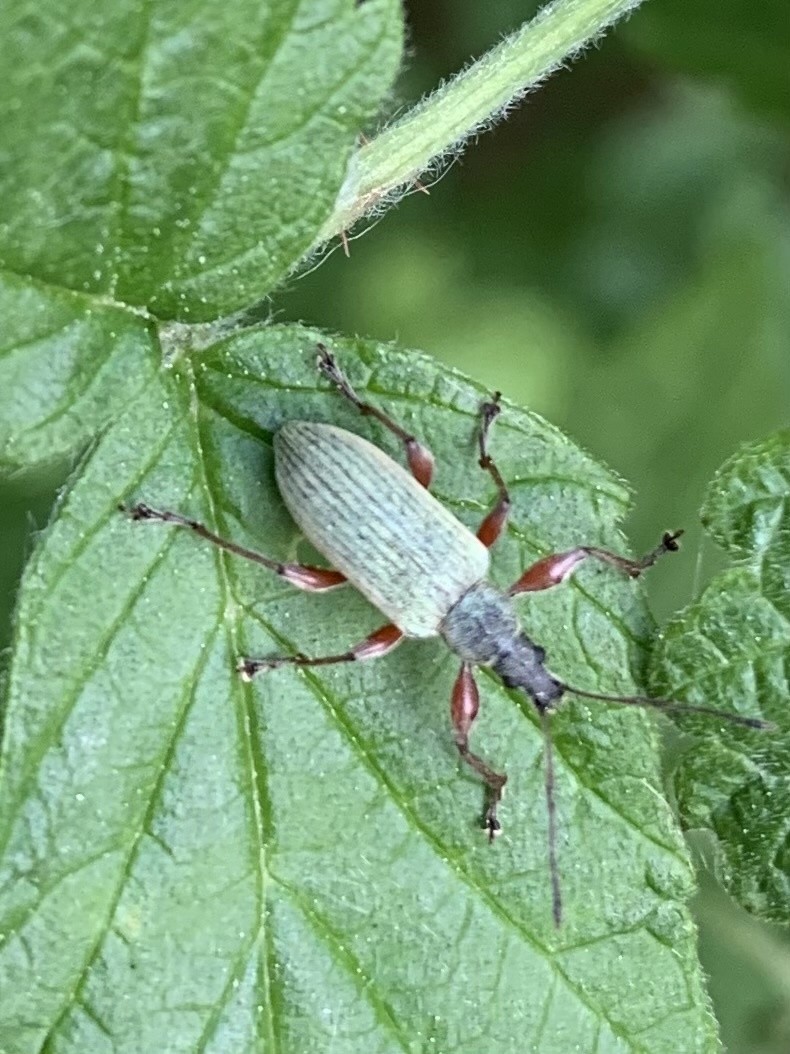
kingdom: Animalia
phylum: Arthropoda
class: Insecta
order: Coleoptera
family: Curculionidae
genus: Phyllobius
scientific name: Phyllobius glaucus
